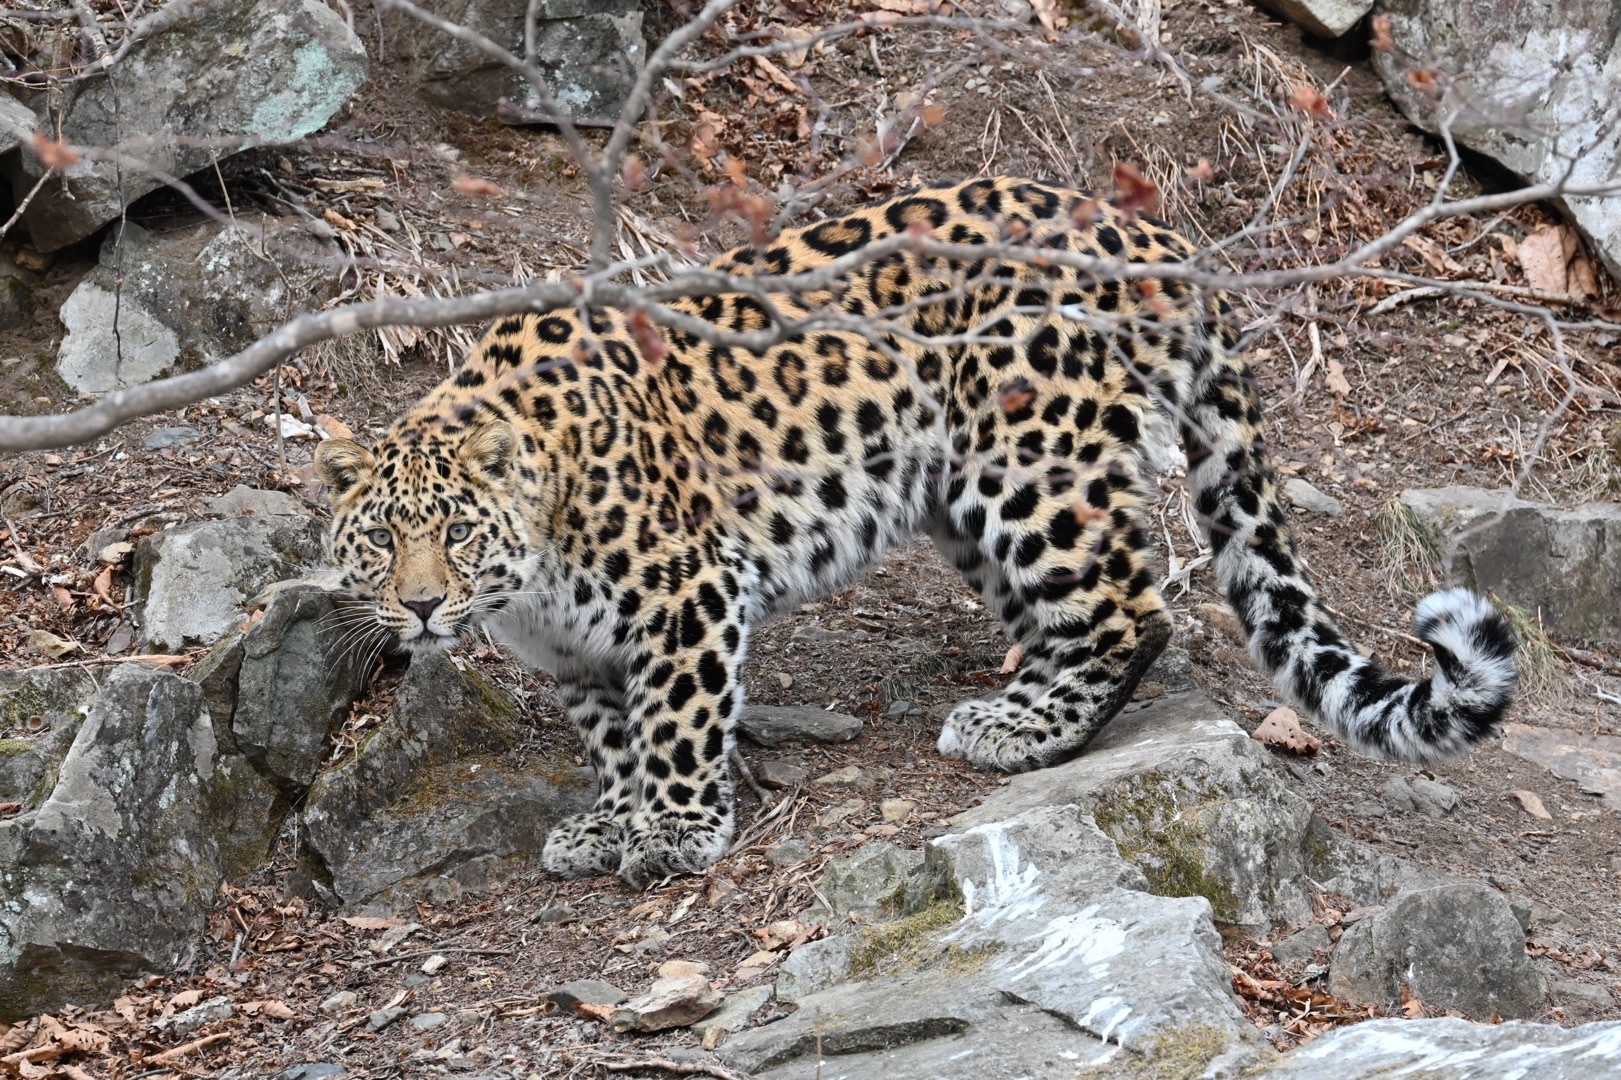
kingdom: Animalia
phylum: Chordata
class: Mammalia
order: Carnivora
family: Felidae
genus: Panthera
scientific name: Panthera pardus
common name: Leopard
